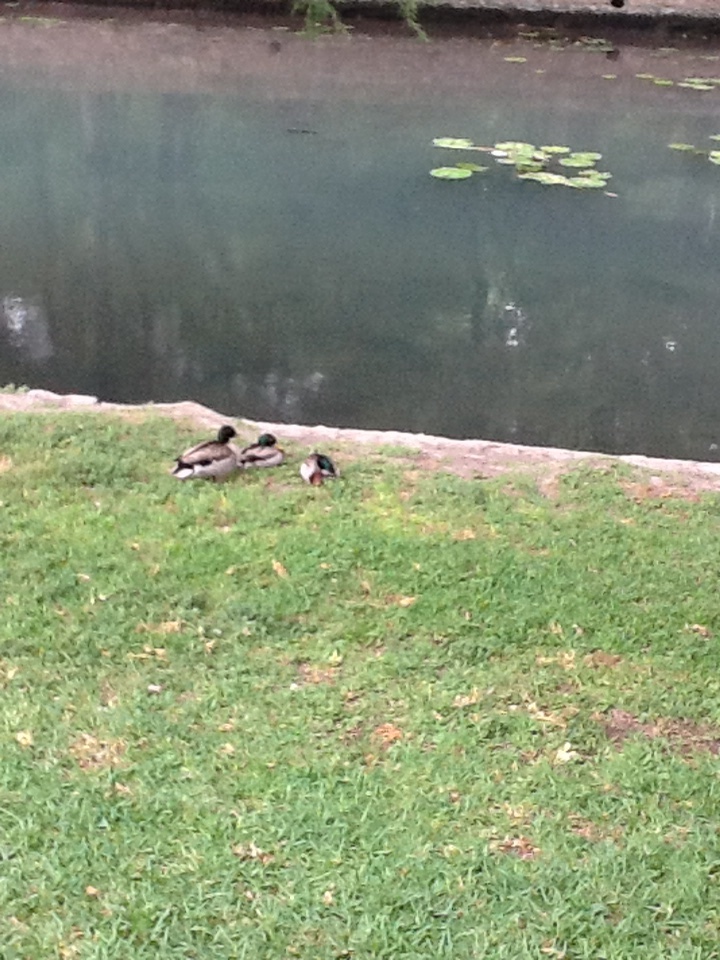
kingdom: Animalia
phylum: Chordata
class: Aves
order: Anseriformes
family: Anatidae
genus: Anas
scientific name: Anas platyrhynchos
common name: Mallard
